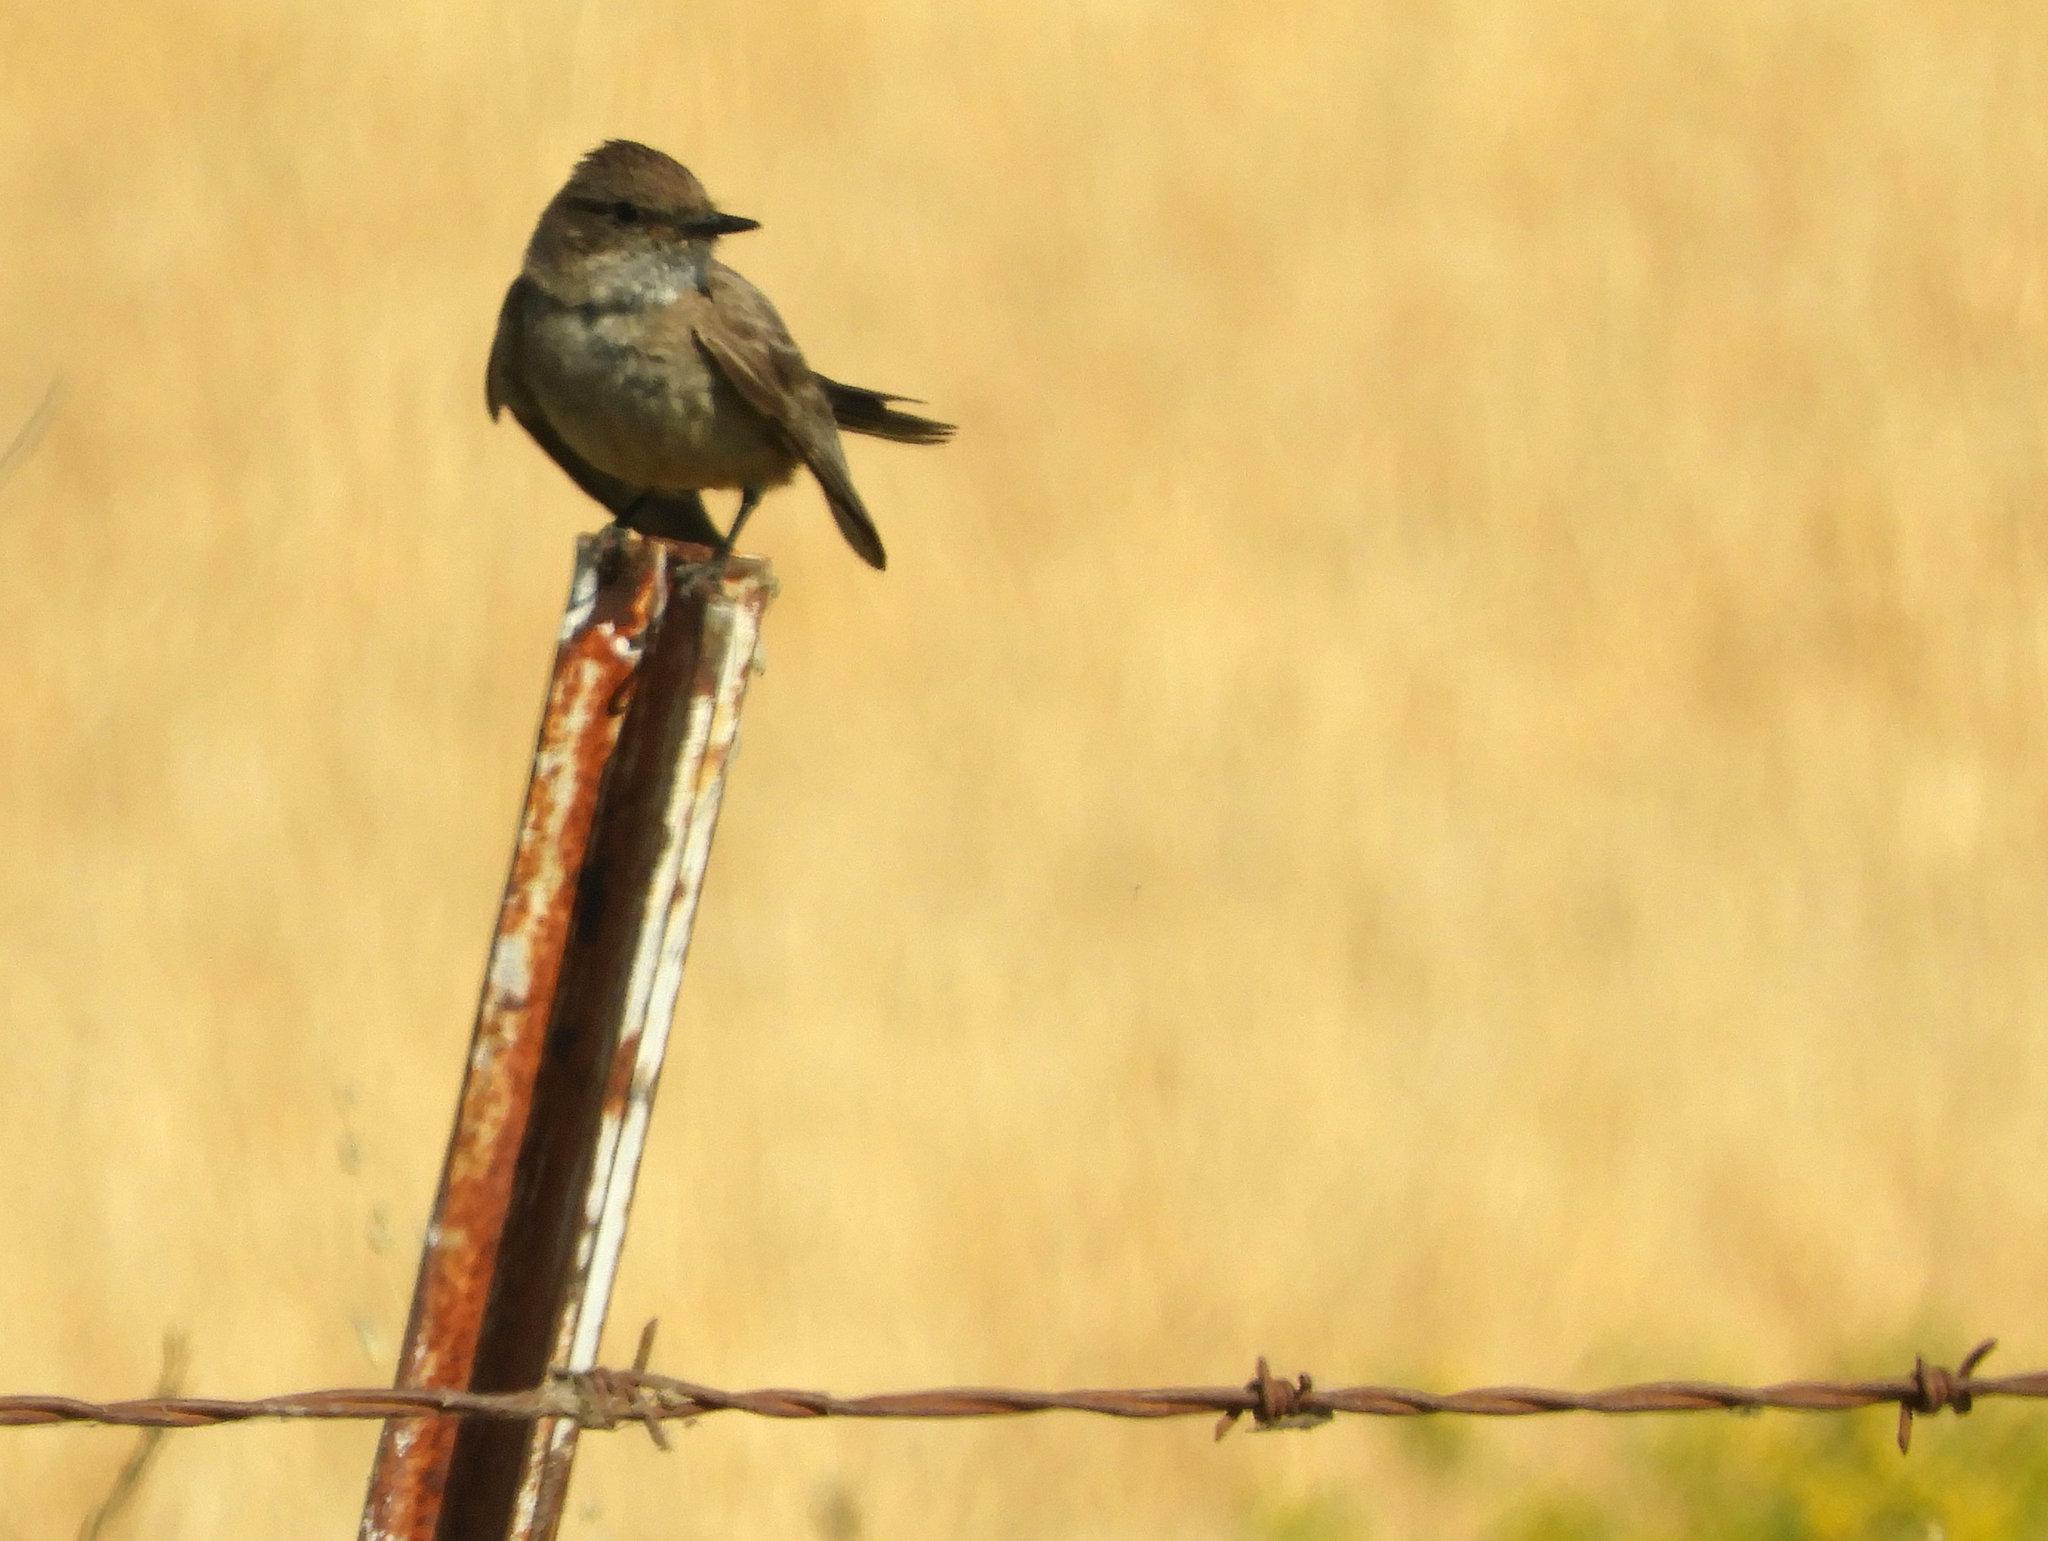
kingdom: Animalia
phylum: Chordata
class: Aves
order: Passeriformes
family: Tyrannidae
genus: Sayornis
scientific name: Sayornis saya
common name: Say's phoebe
